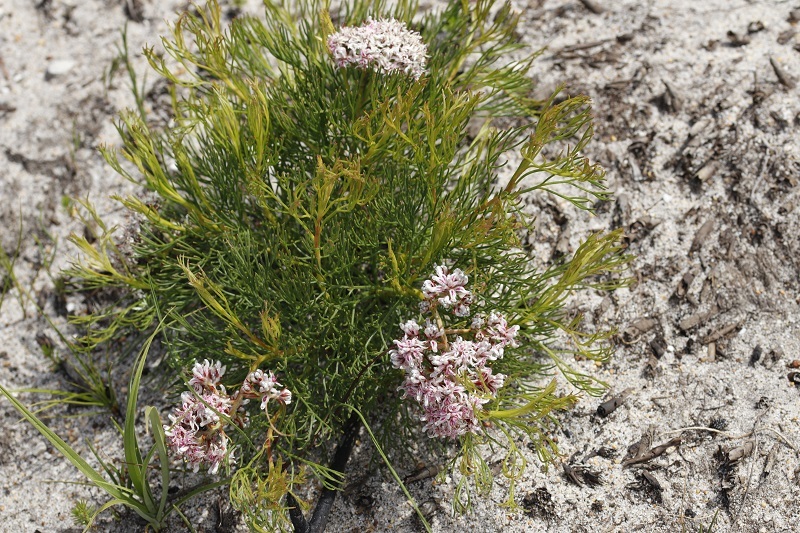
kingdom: Plantae
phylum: Tracheophyta
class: Magnoliopsida
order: Proteales
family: Proteaceae
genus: Serruria
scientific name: Serruria ascendens
